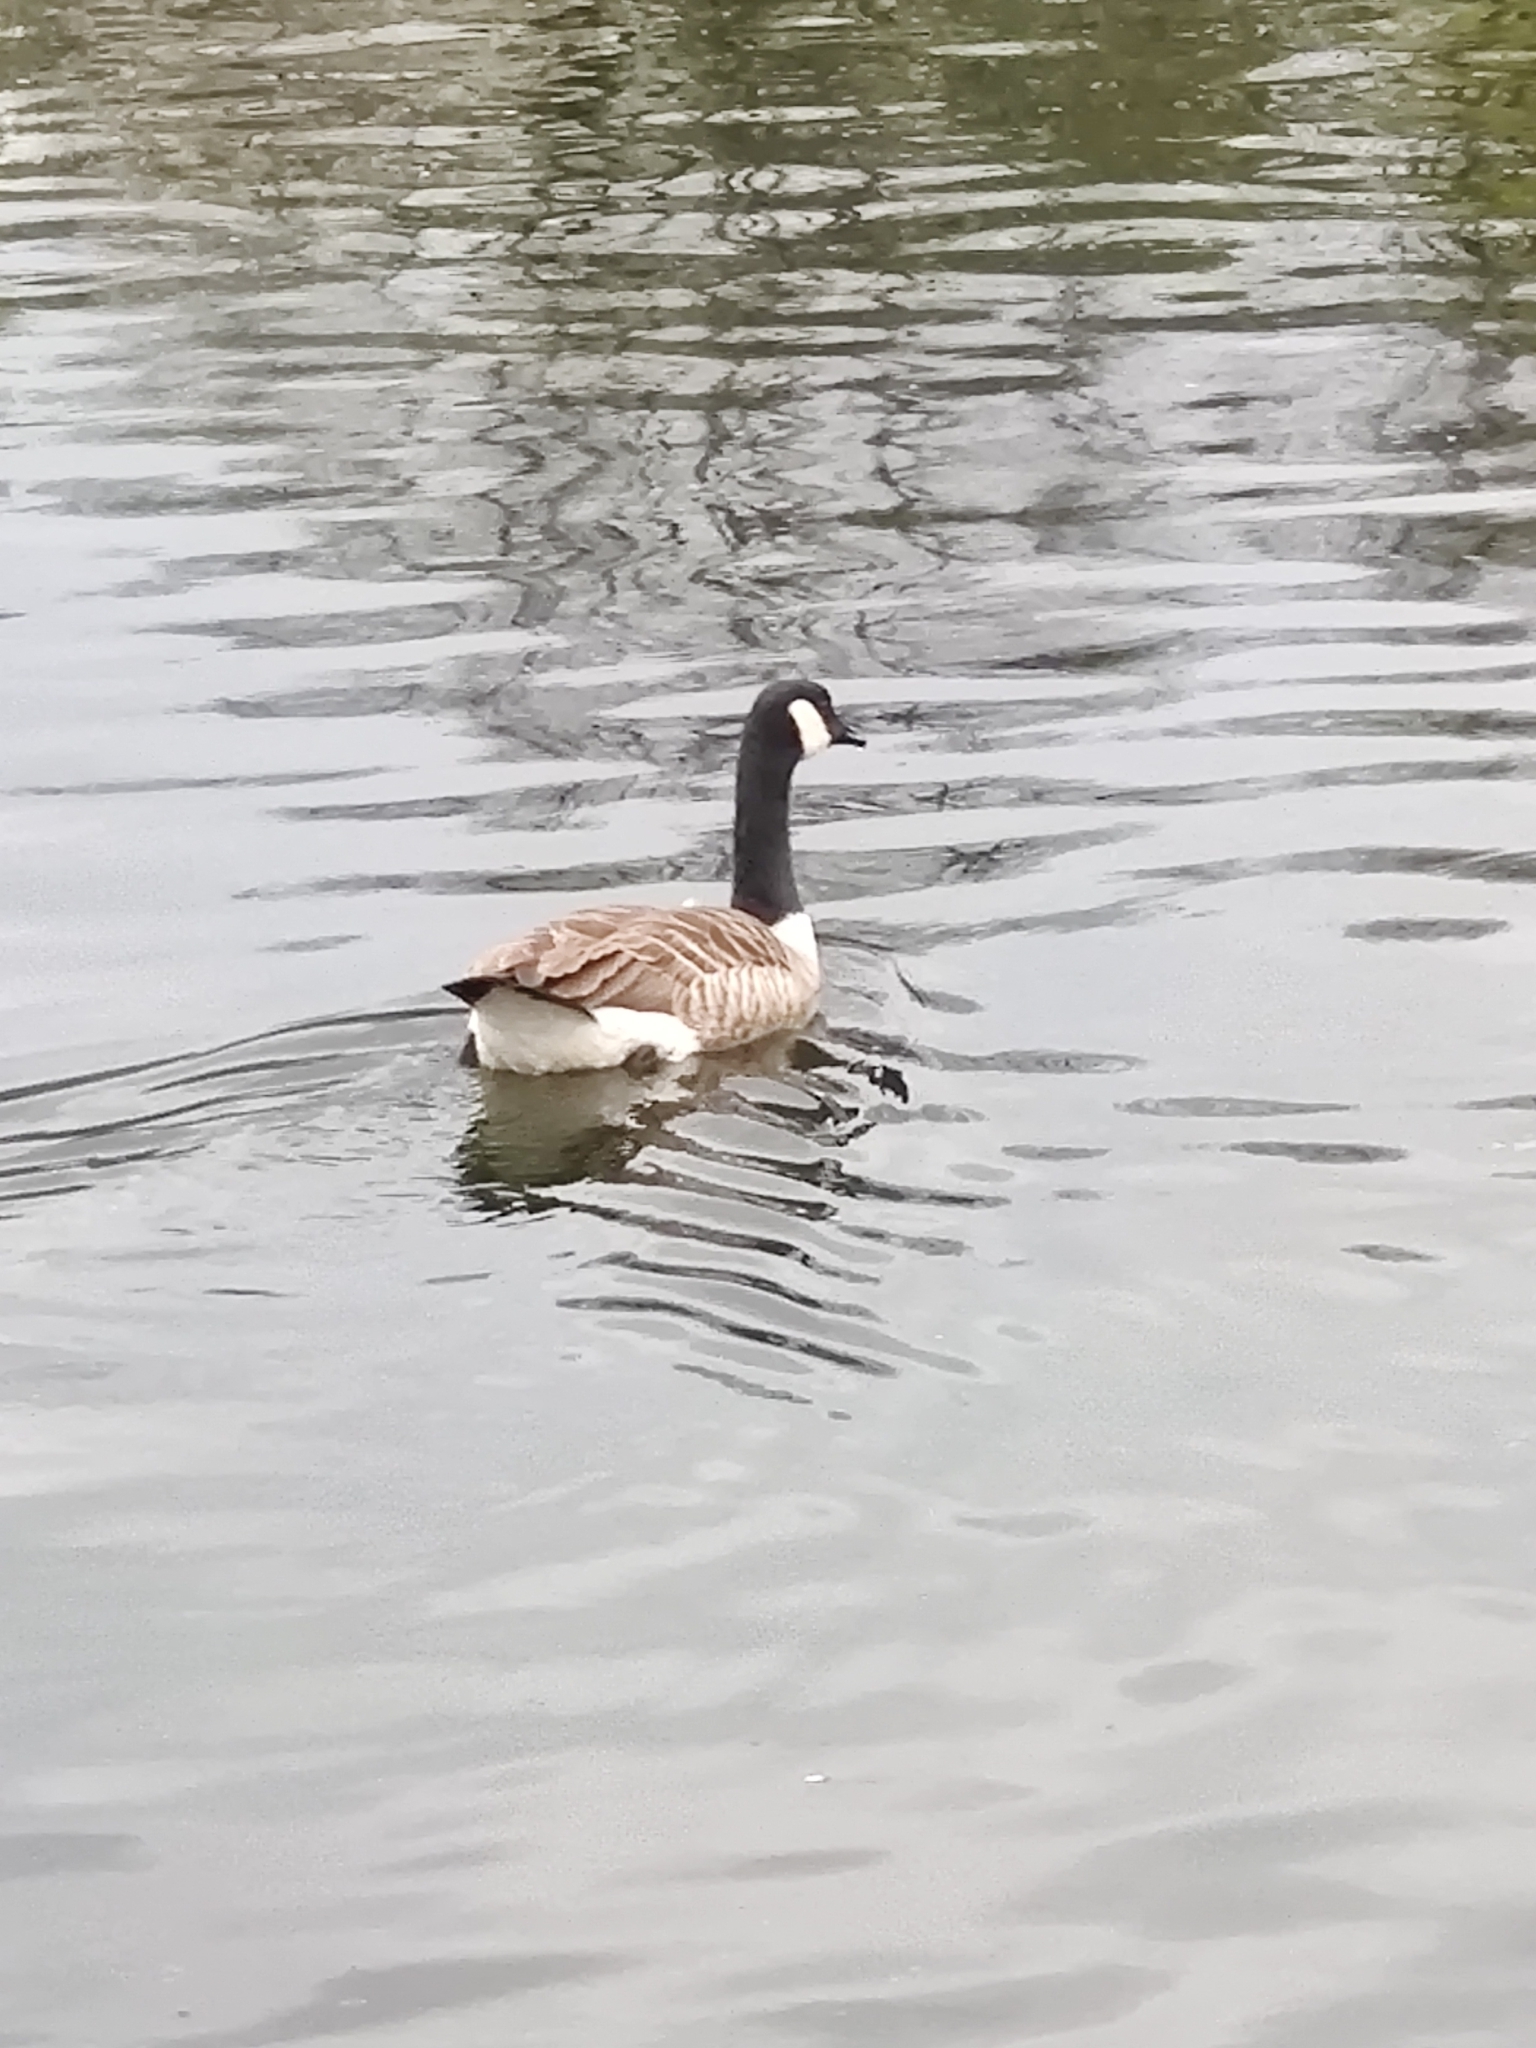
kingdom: Animalia
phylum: Chordata
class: Aves
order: Anseriformes
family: Anatidae
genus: Branta
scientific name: Branta canadensis
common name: Canada goose
